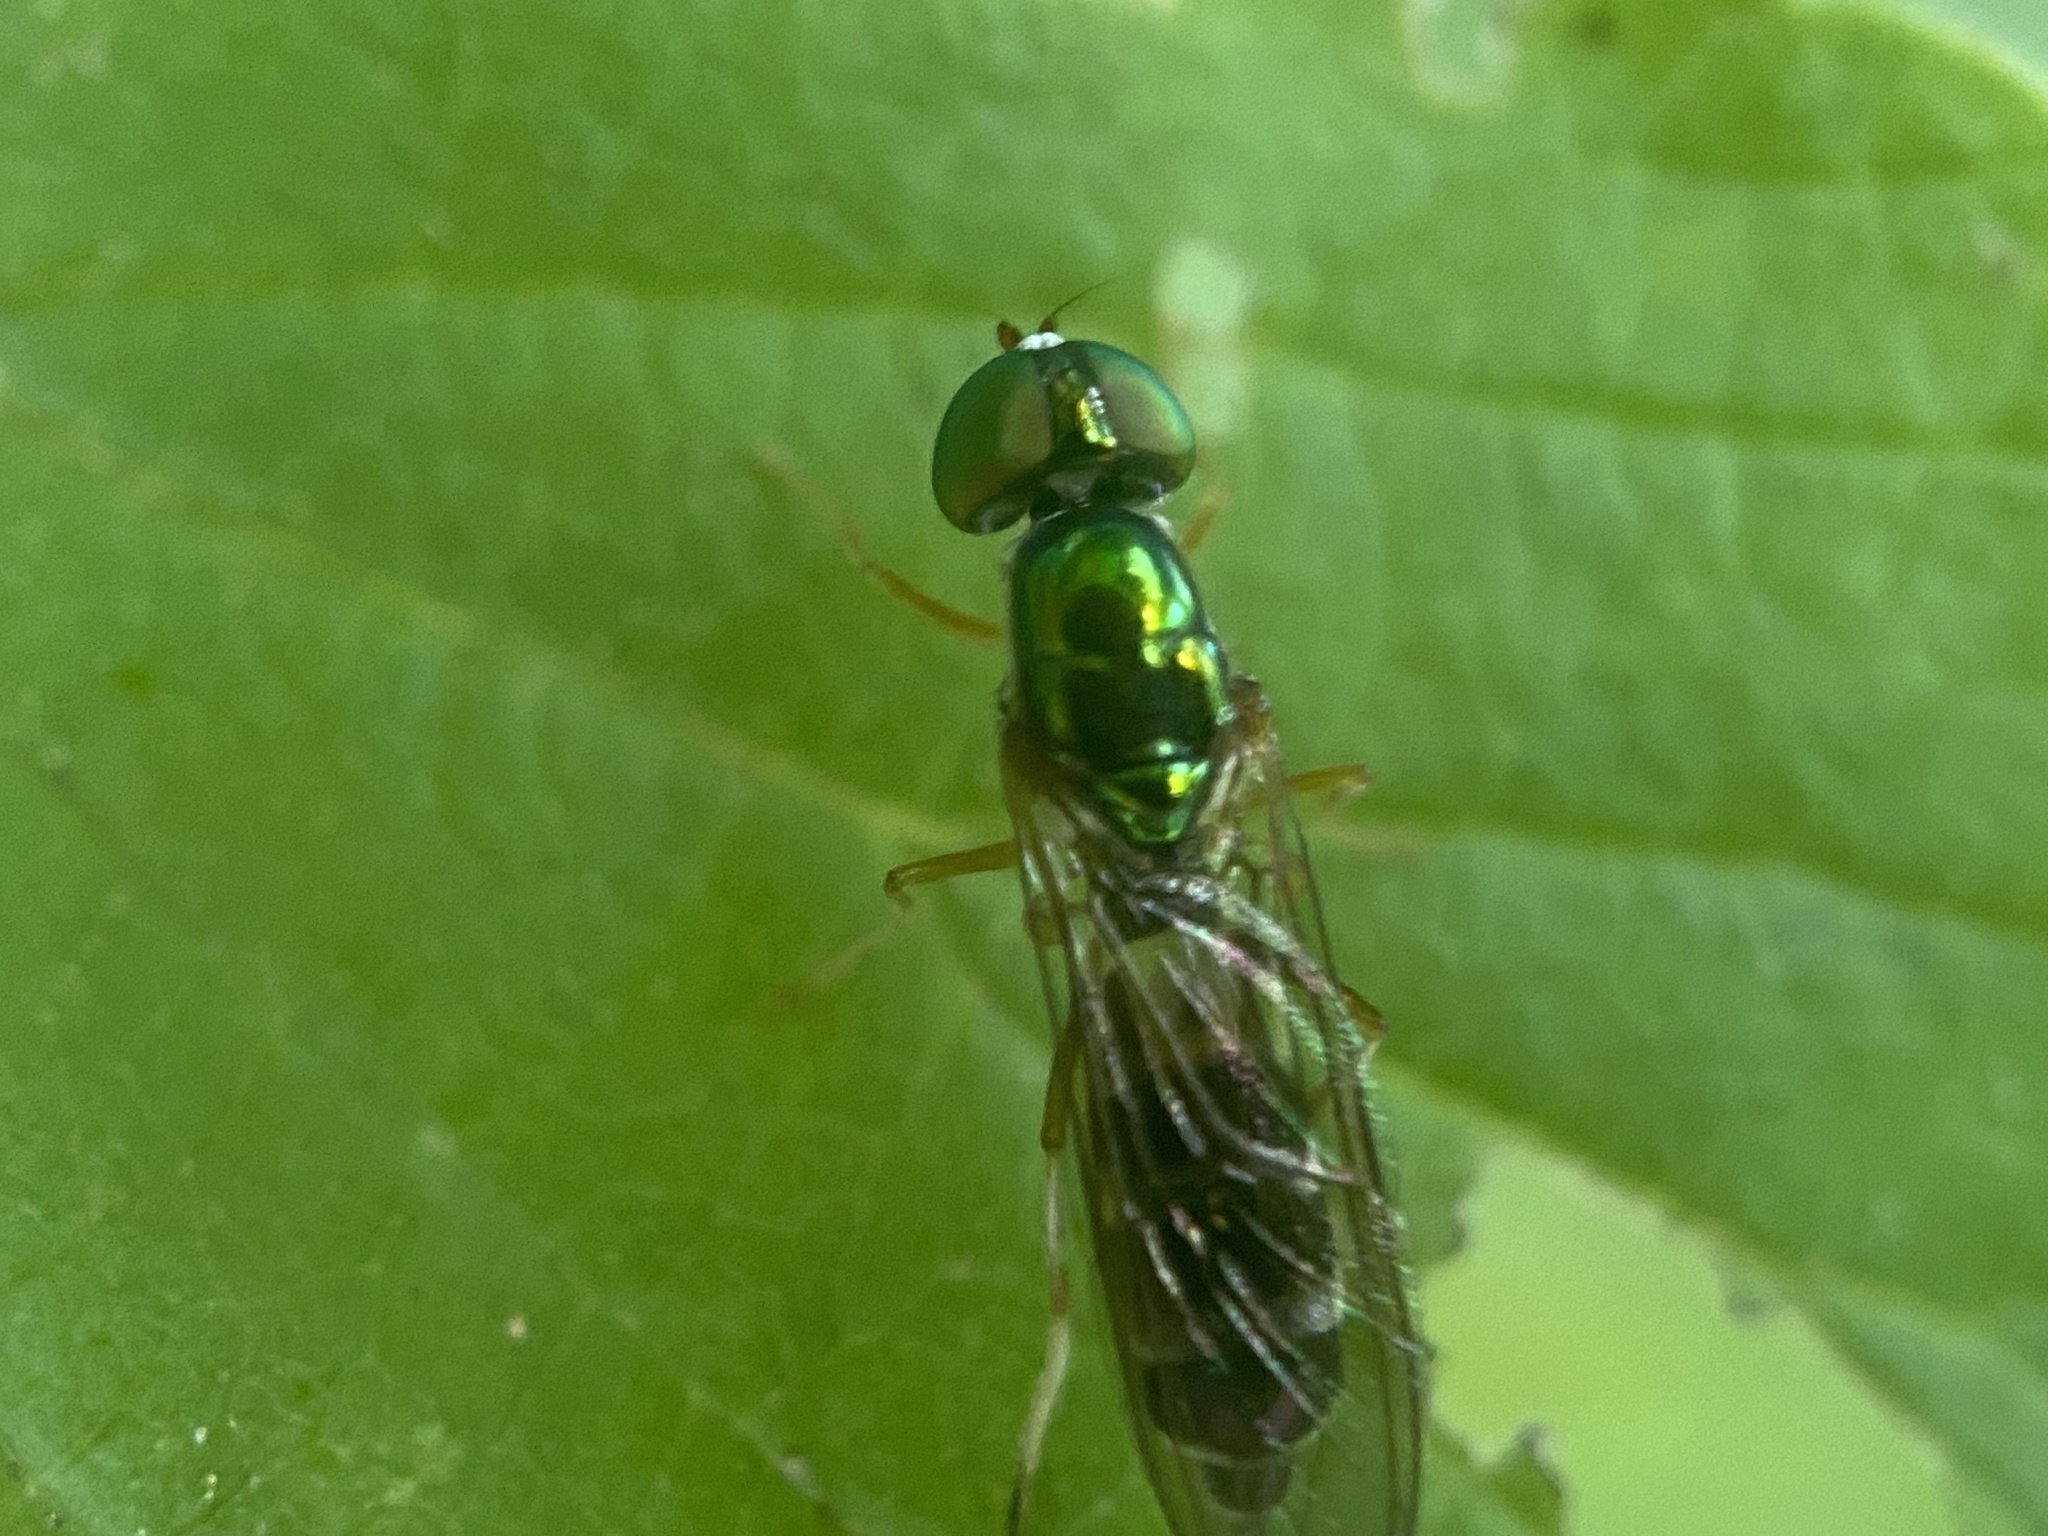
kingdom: Animalia
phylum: Arthropoda
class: Insecta
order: Diptera
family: Stratiomyidae
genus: Sargus
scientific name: Sargus fasciatus
